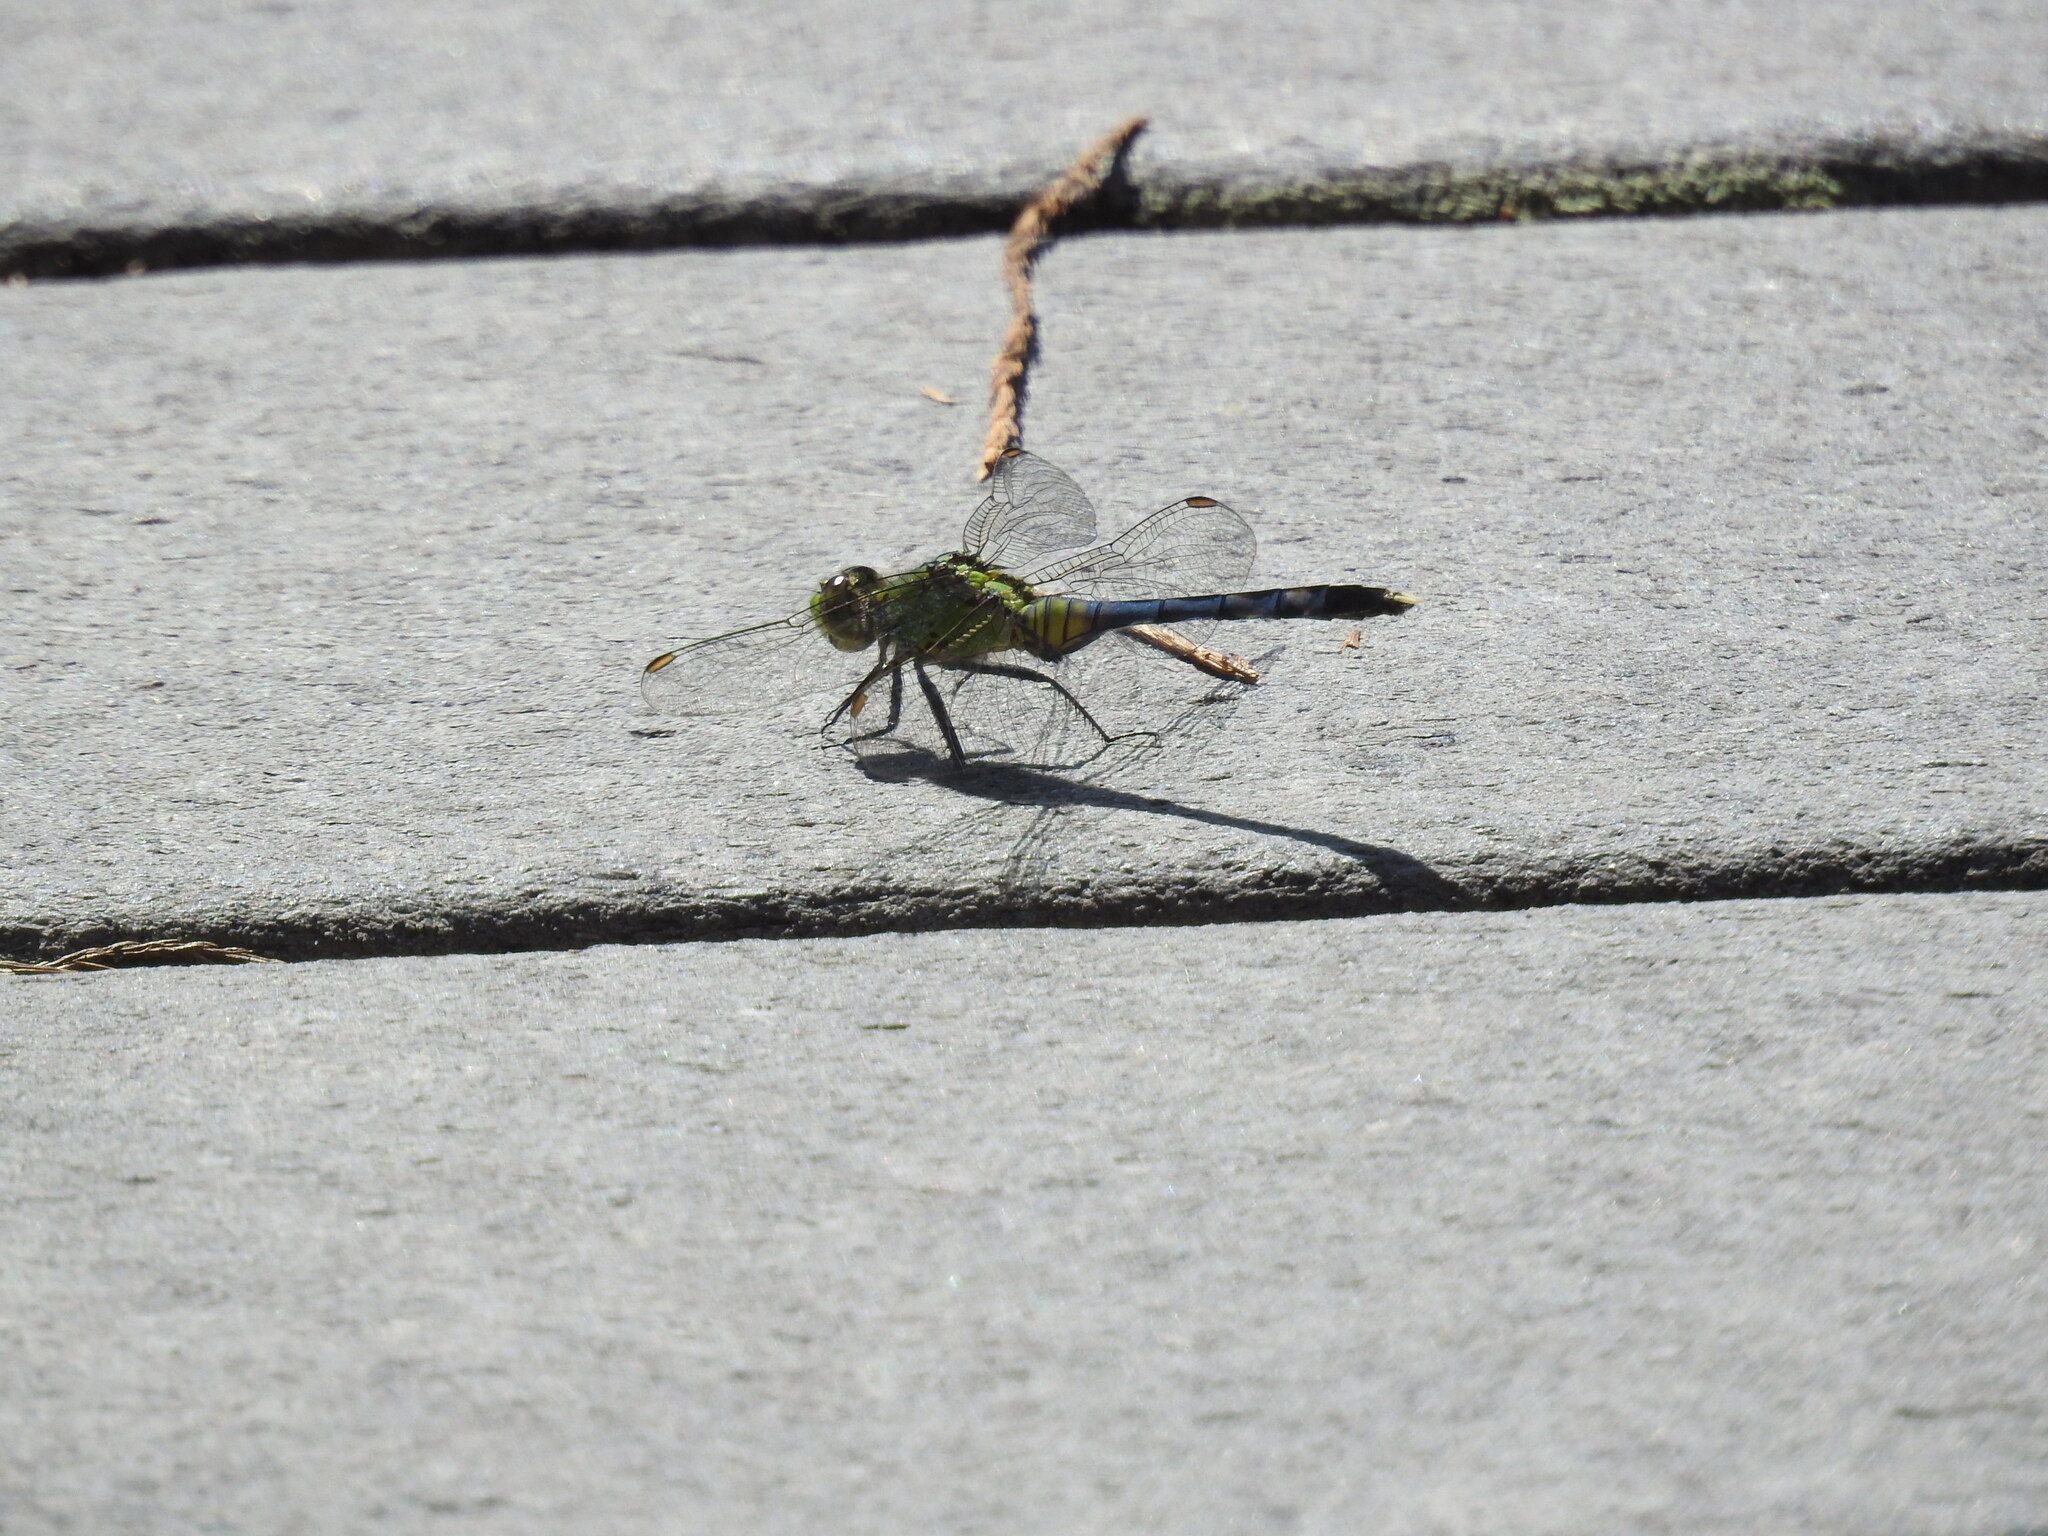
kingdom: Animalia
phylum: Arthropoda
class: Insecta
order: Odonata
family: Libellulidae
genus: Erythemis
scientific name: Erythemis simplicicollis
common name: Eastern pondhawk
